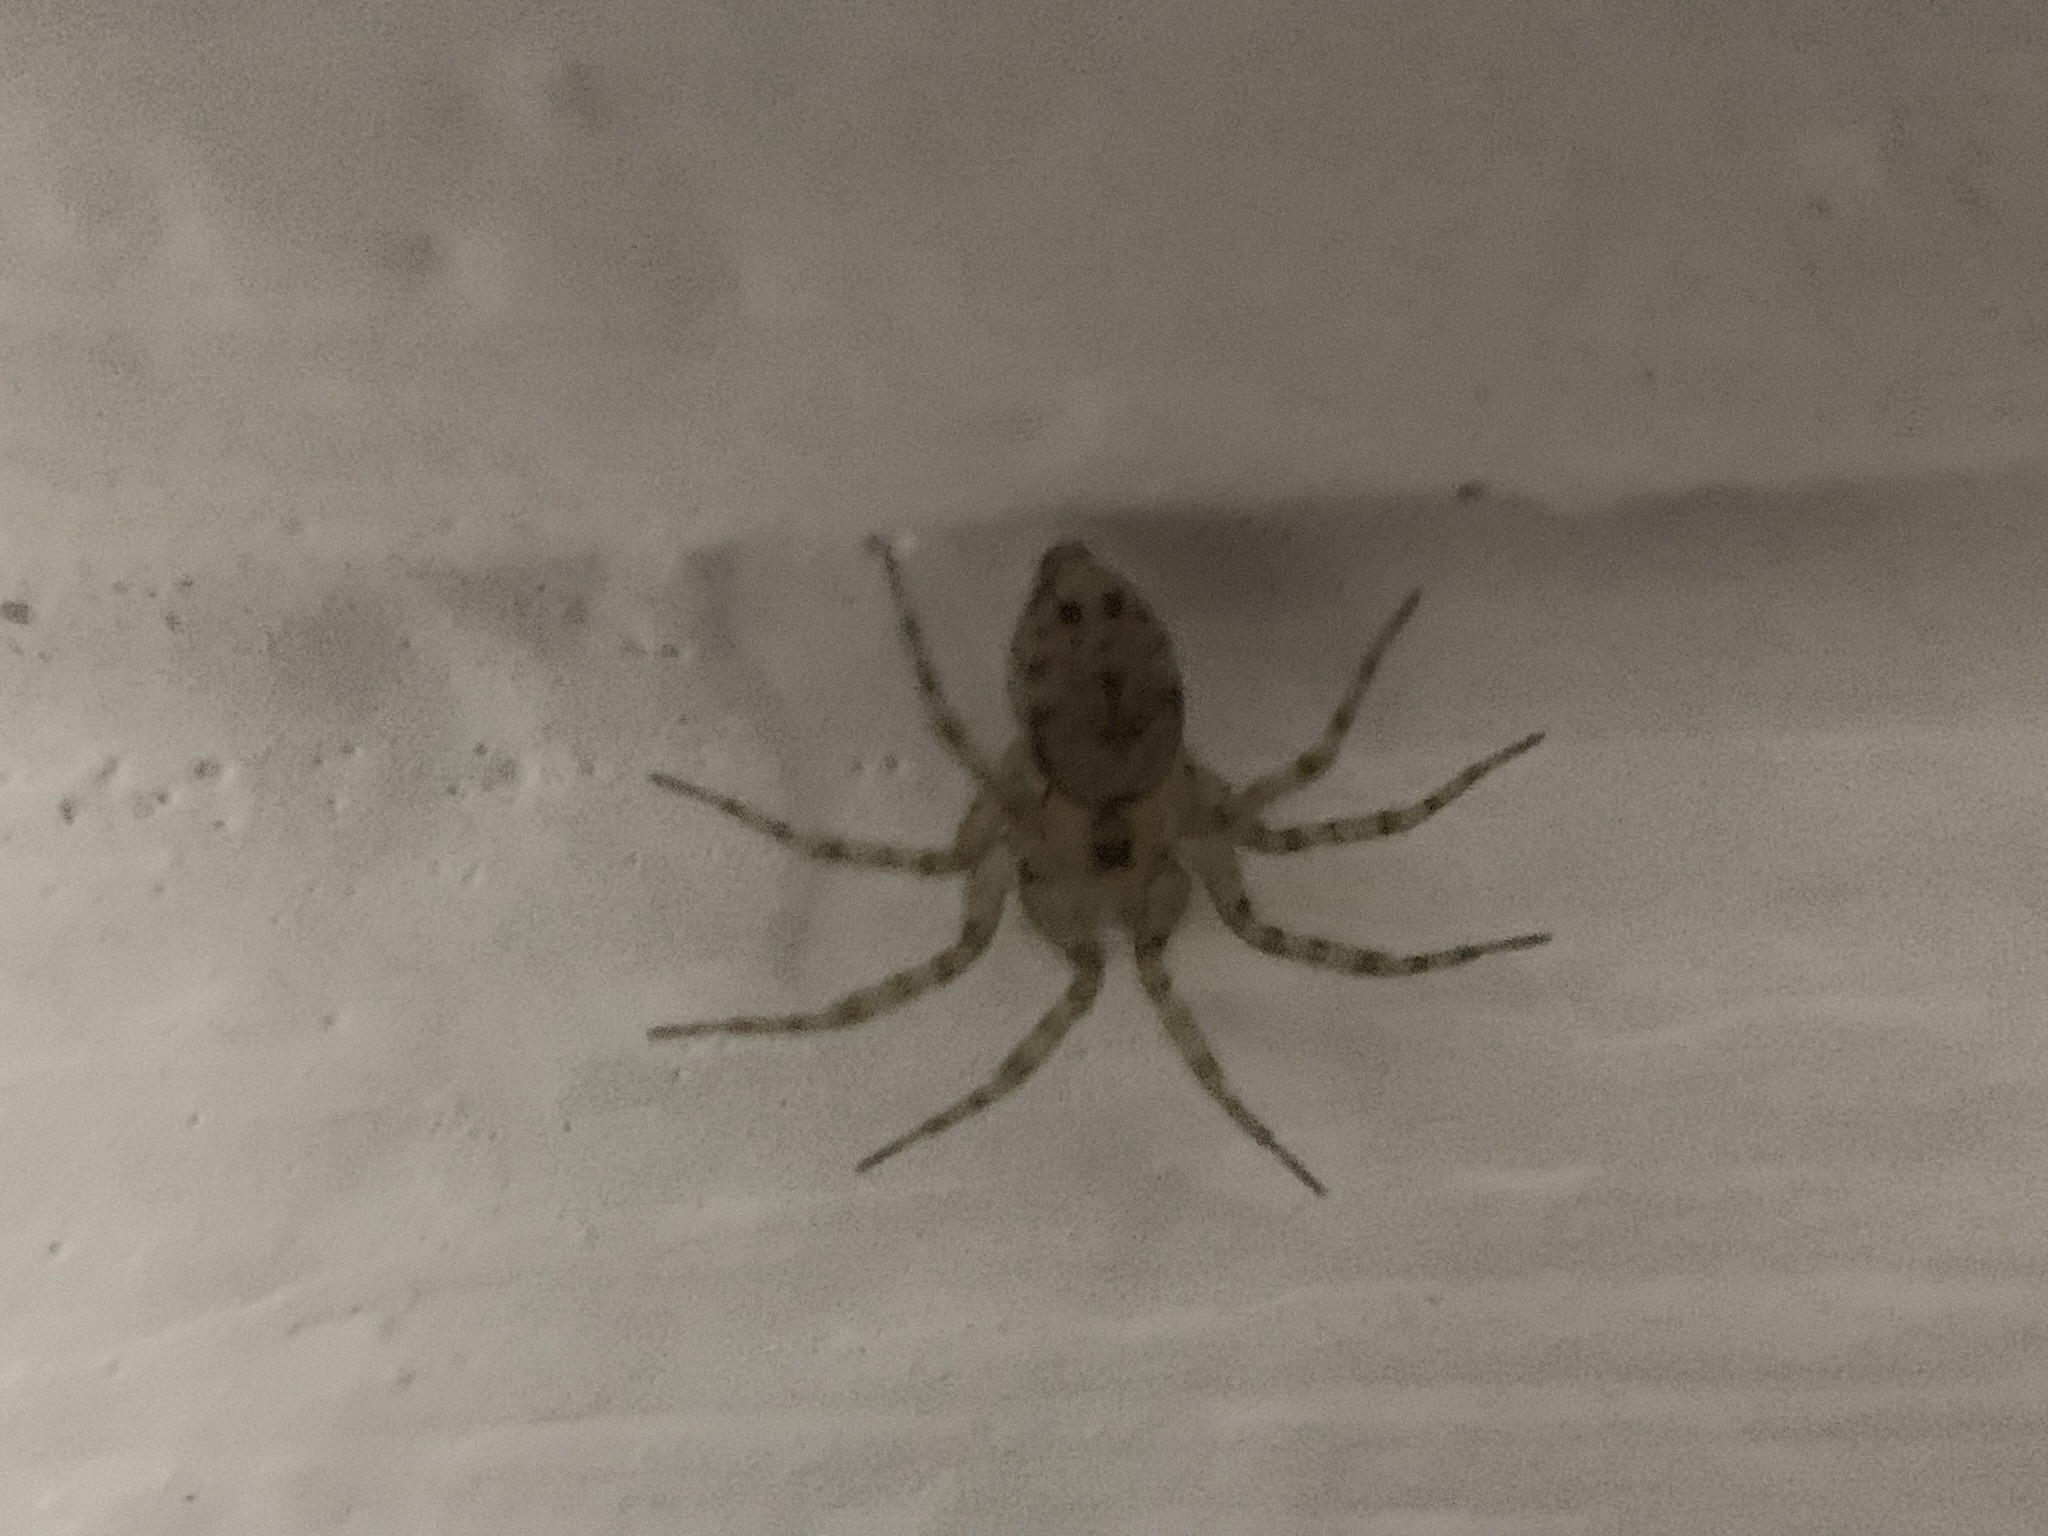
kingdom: Animalia
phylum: Arthropoda
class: Arachnida
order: Araneae
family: Oecobiidae
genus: Oecobius
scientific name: Oecobius navus
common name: Flatmesh weaver
